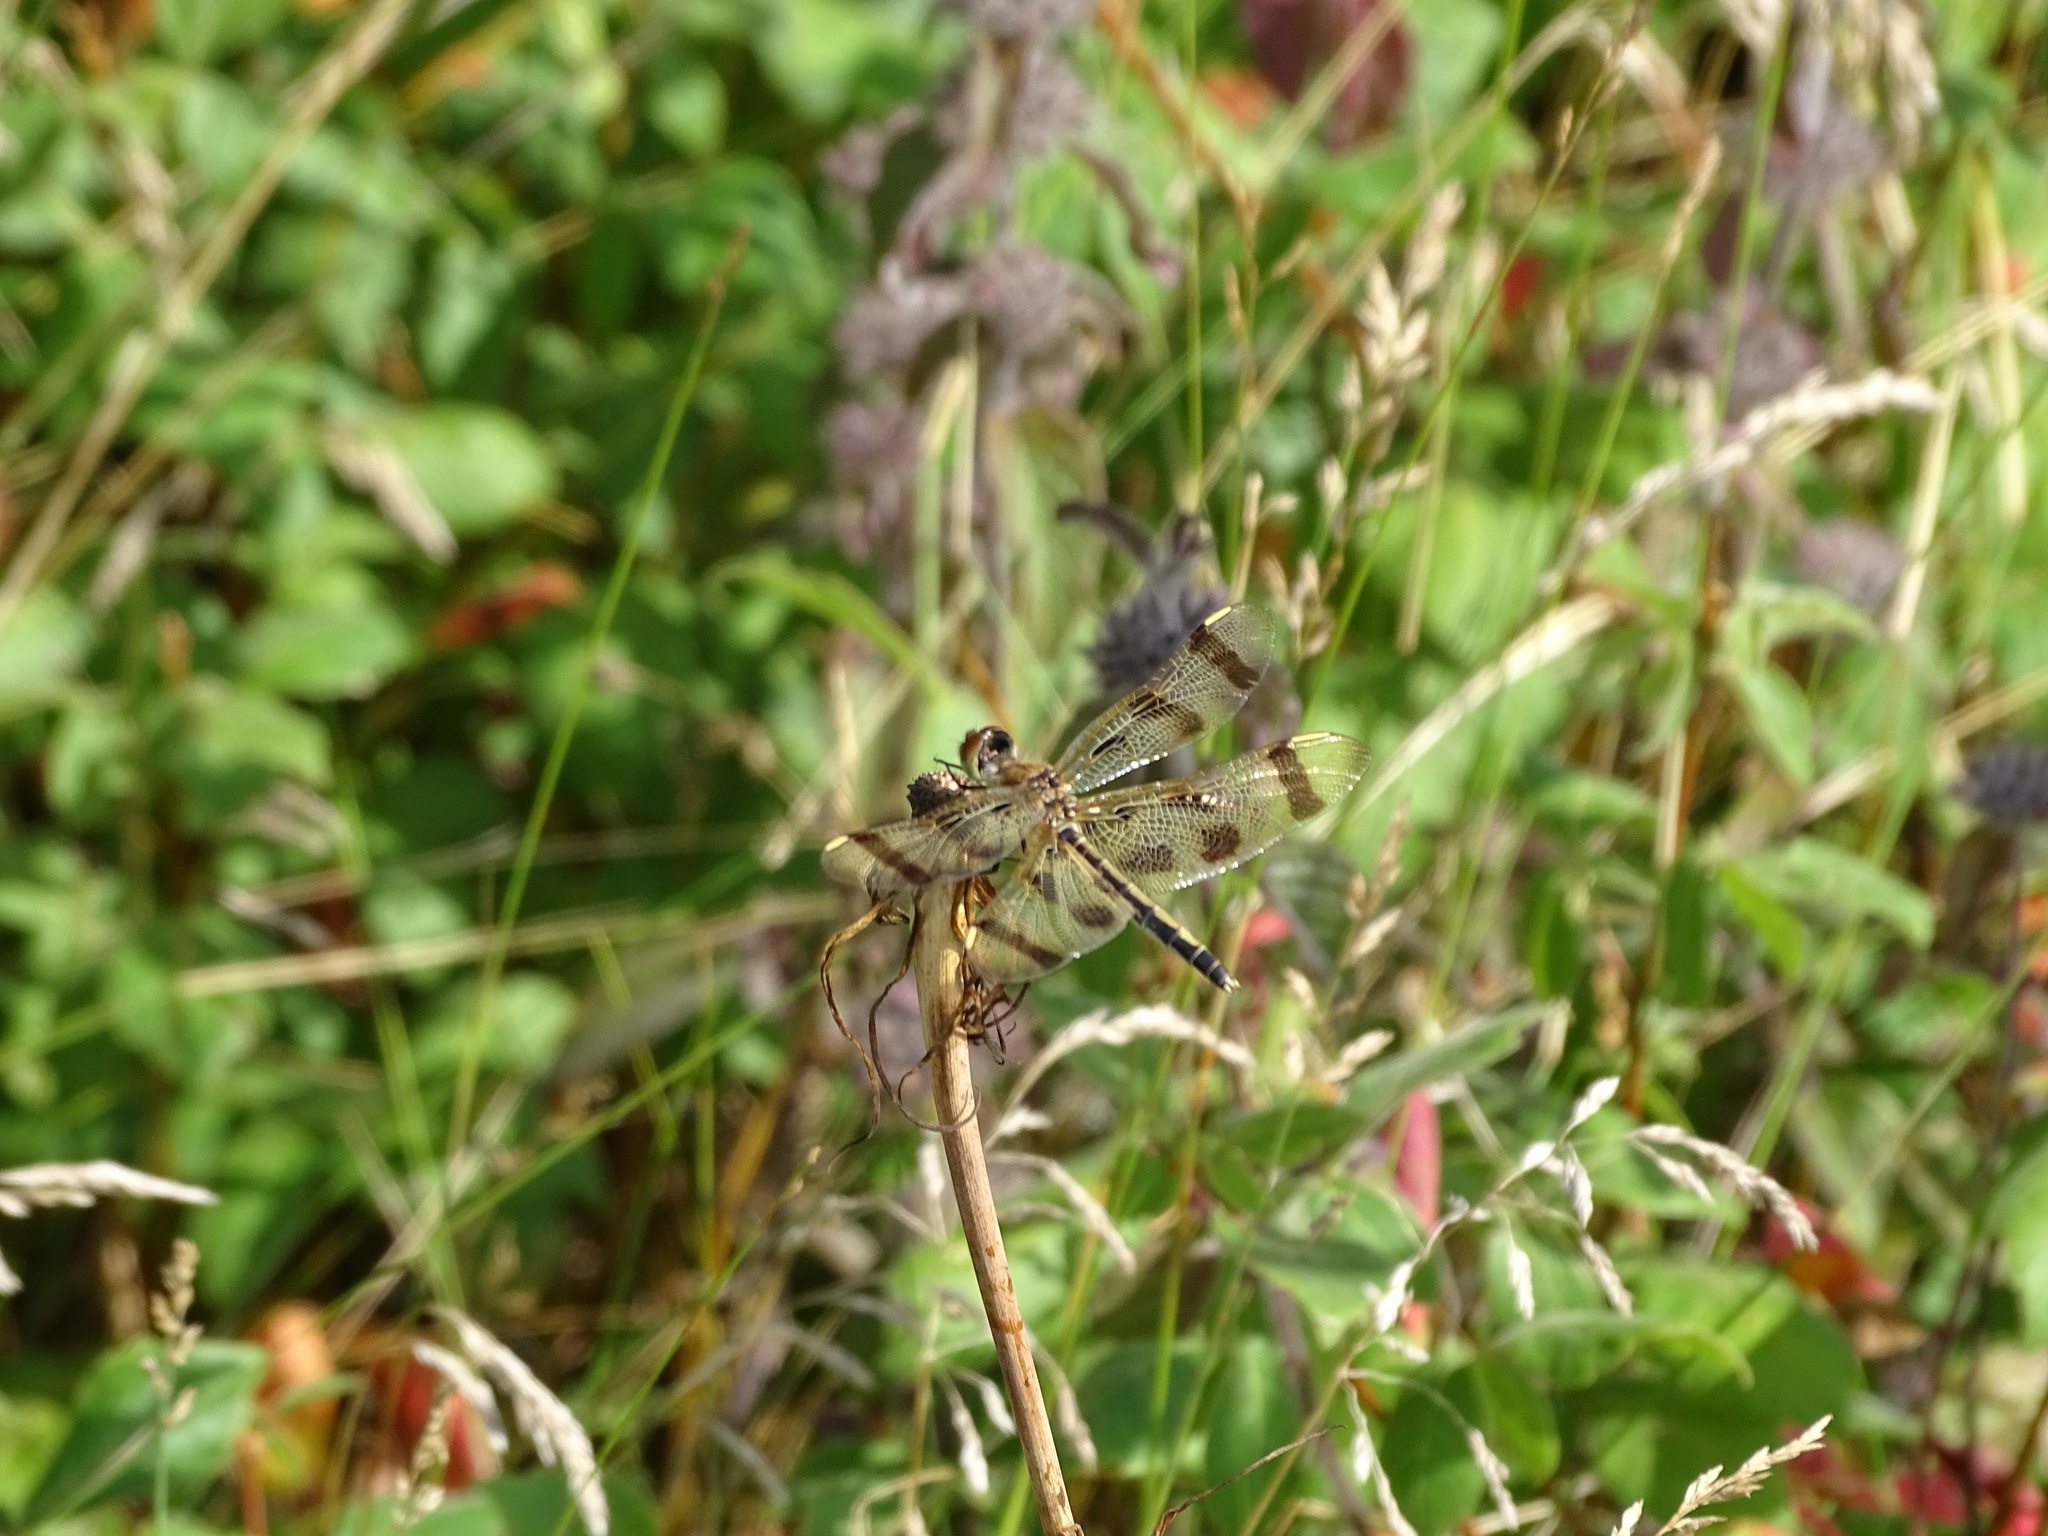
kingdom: Animalia
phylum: Arthropoda
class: Insecta
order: Odonata
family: Libellulidae
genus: Celithemis
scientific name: Celithemis eponina
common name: Halloween pennant
